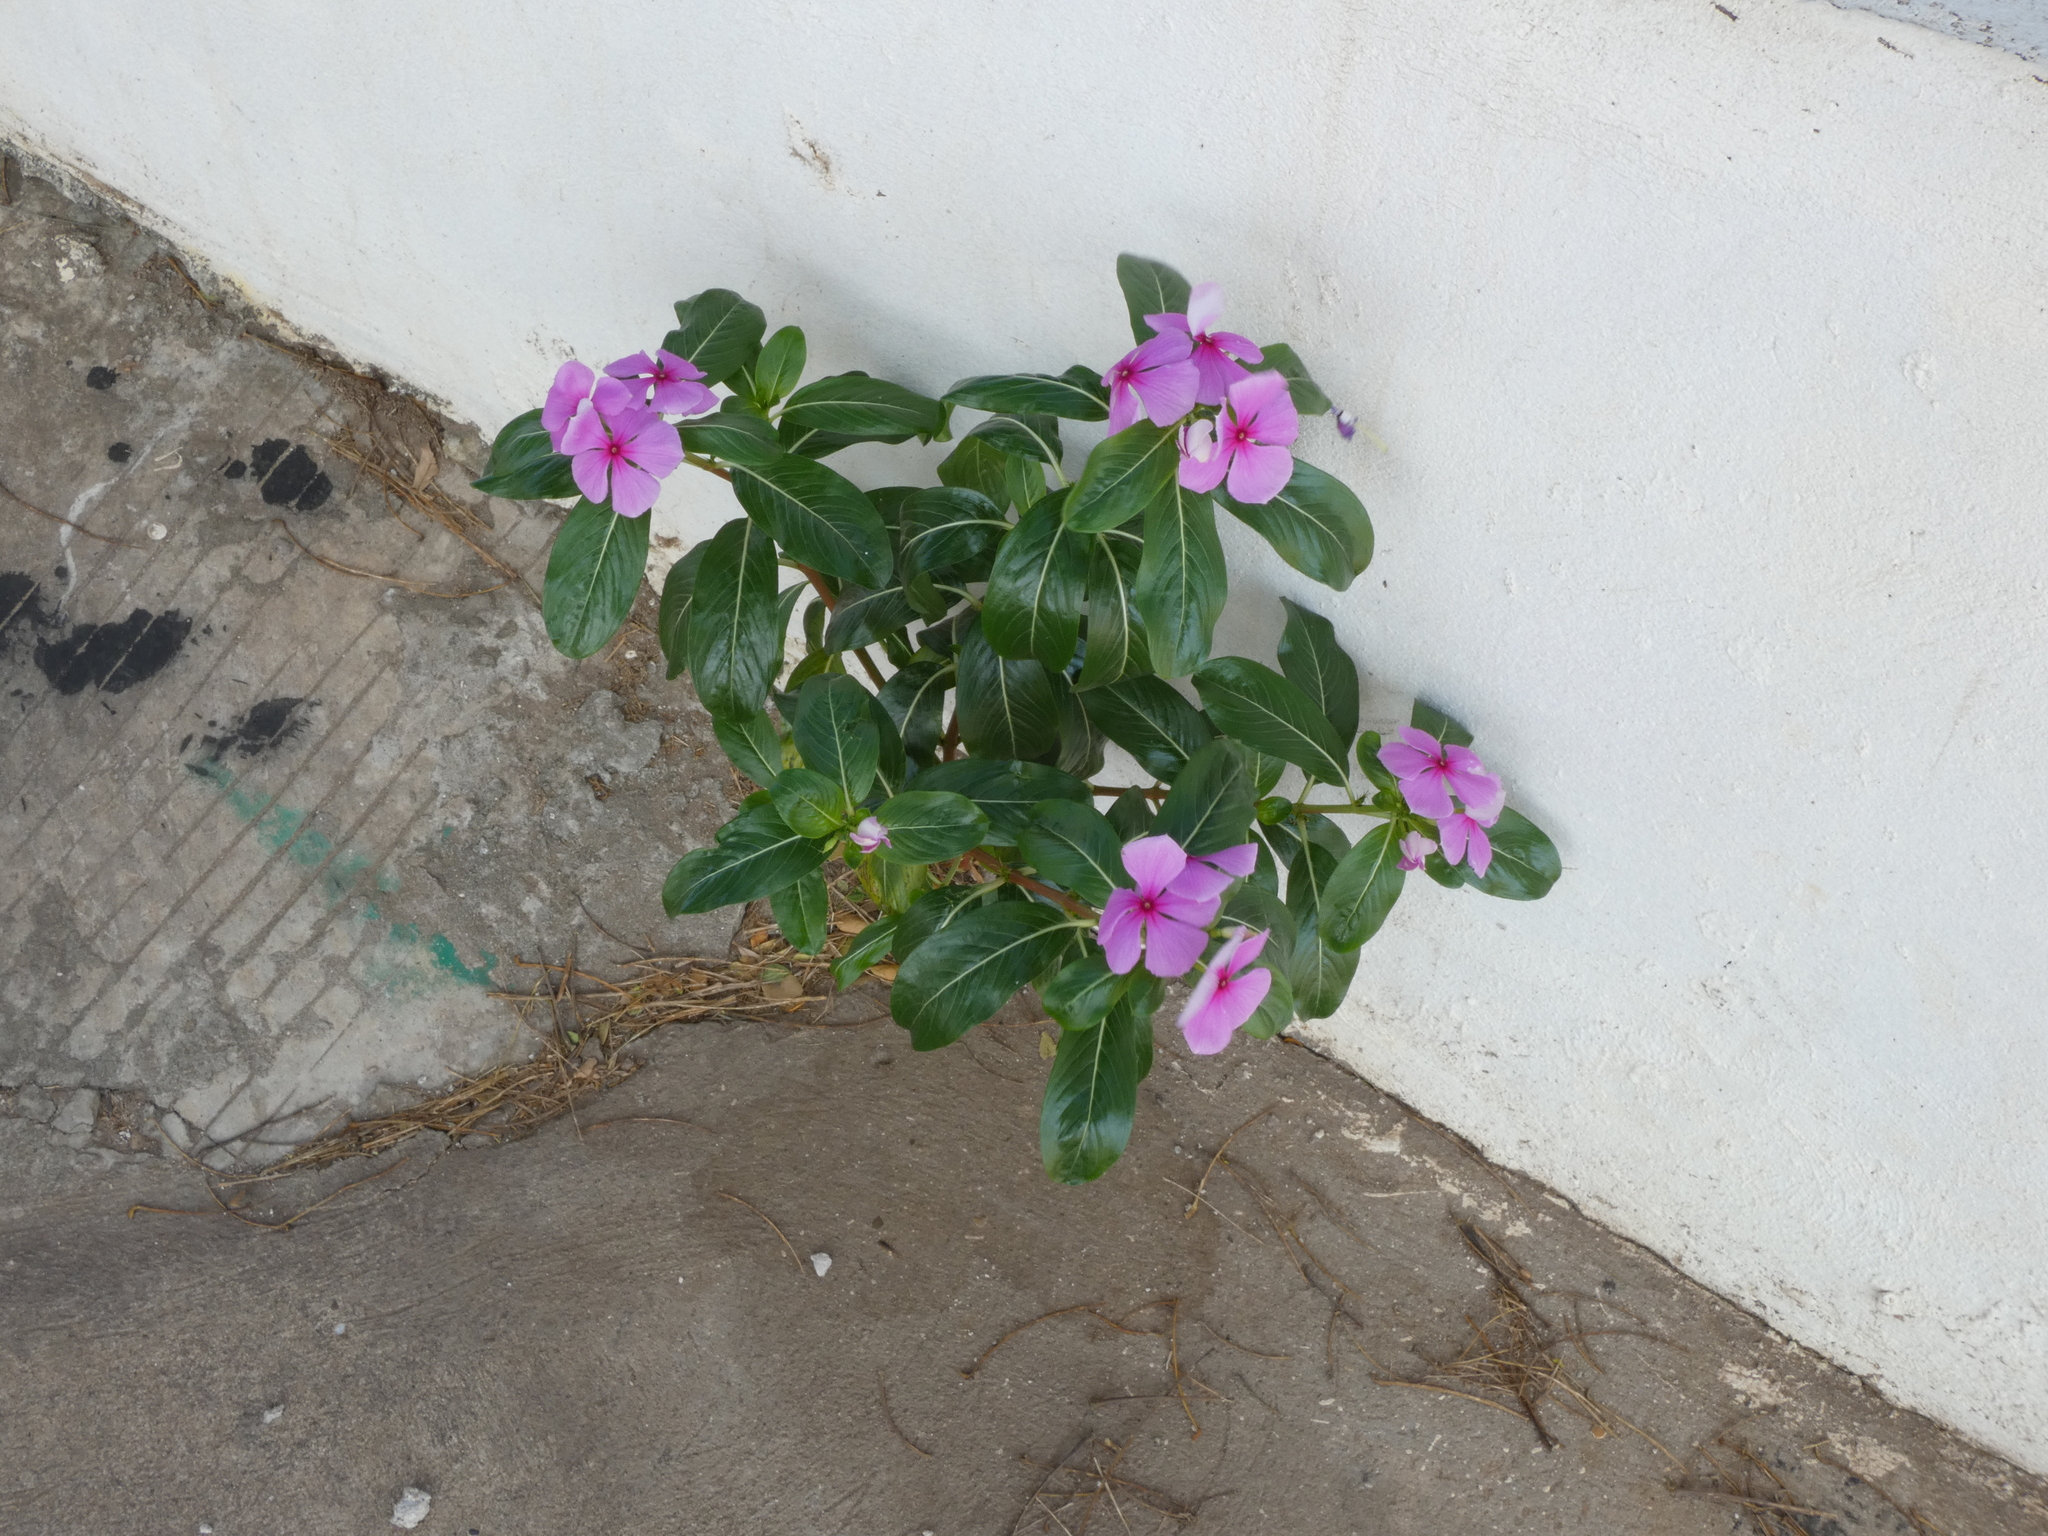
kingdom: Plantae
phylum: Tracheophyta
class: Magnoliopsida
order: Gentianales
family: Apocynaceae
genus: Catharanthus
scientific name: Catharanthus roseus
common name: Madagascar periwinkle
